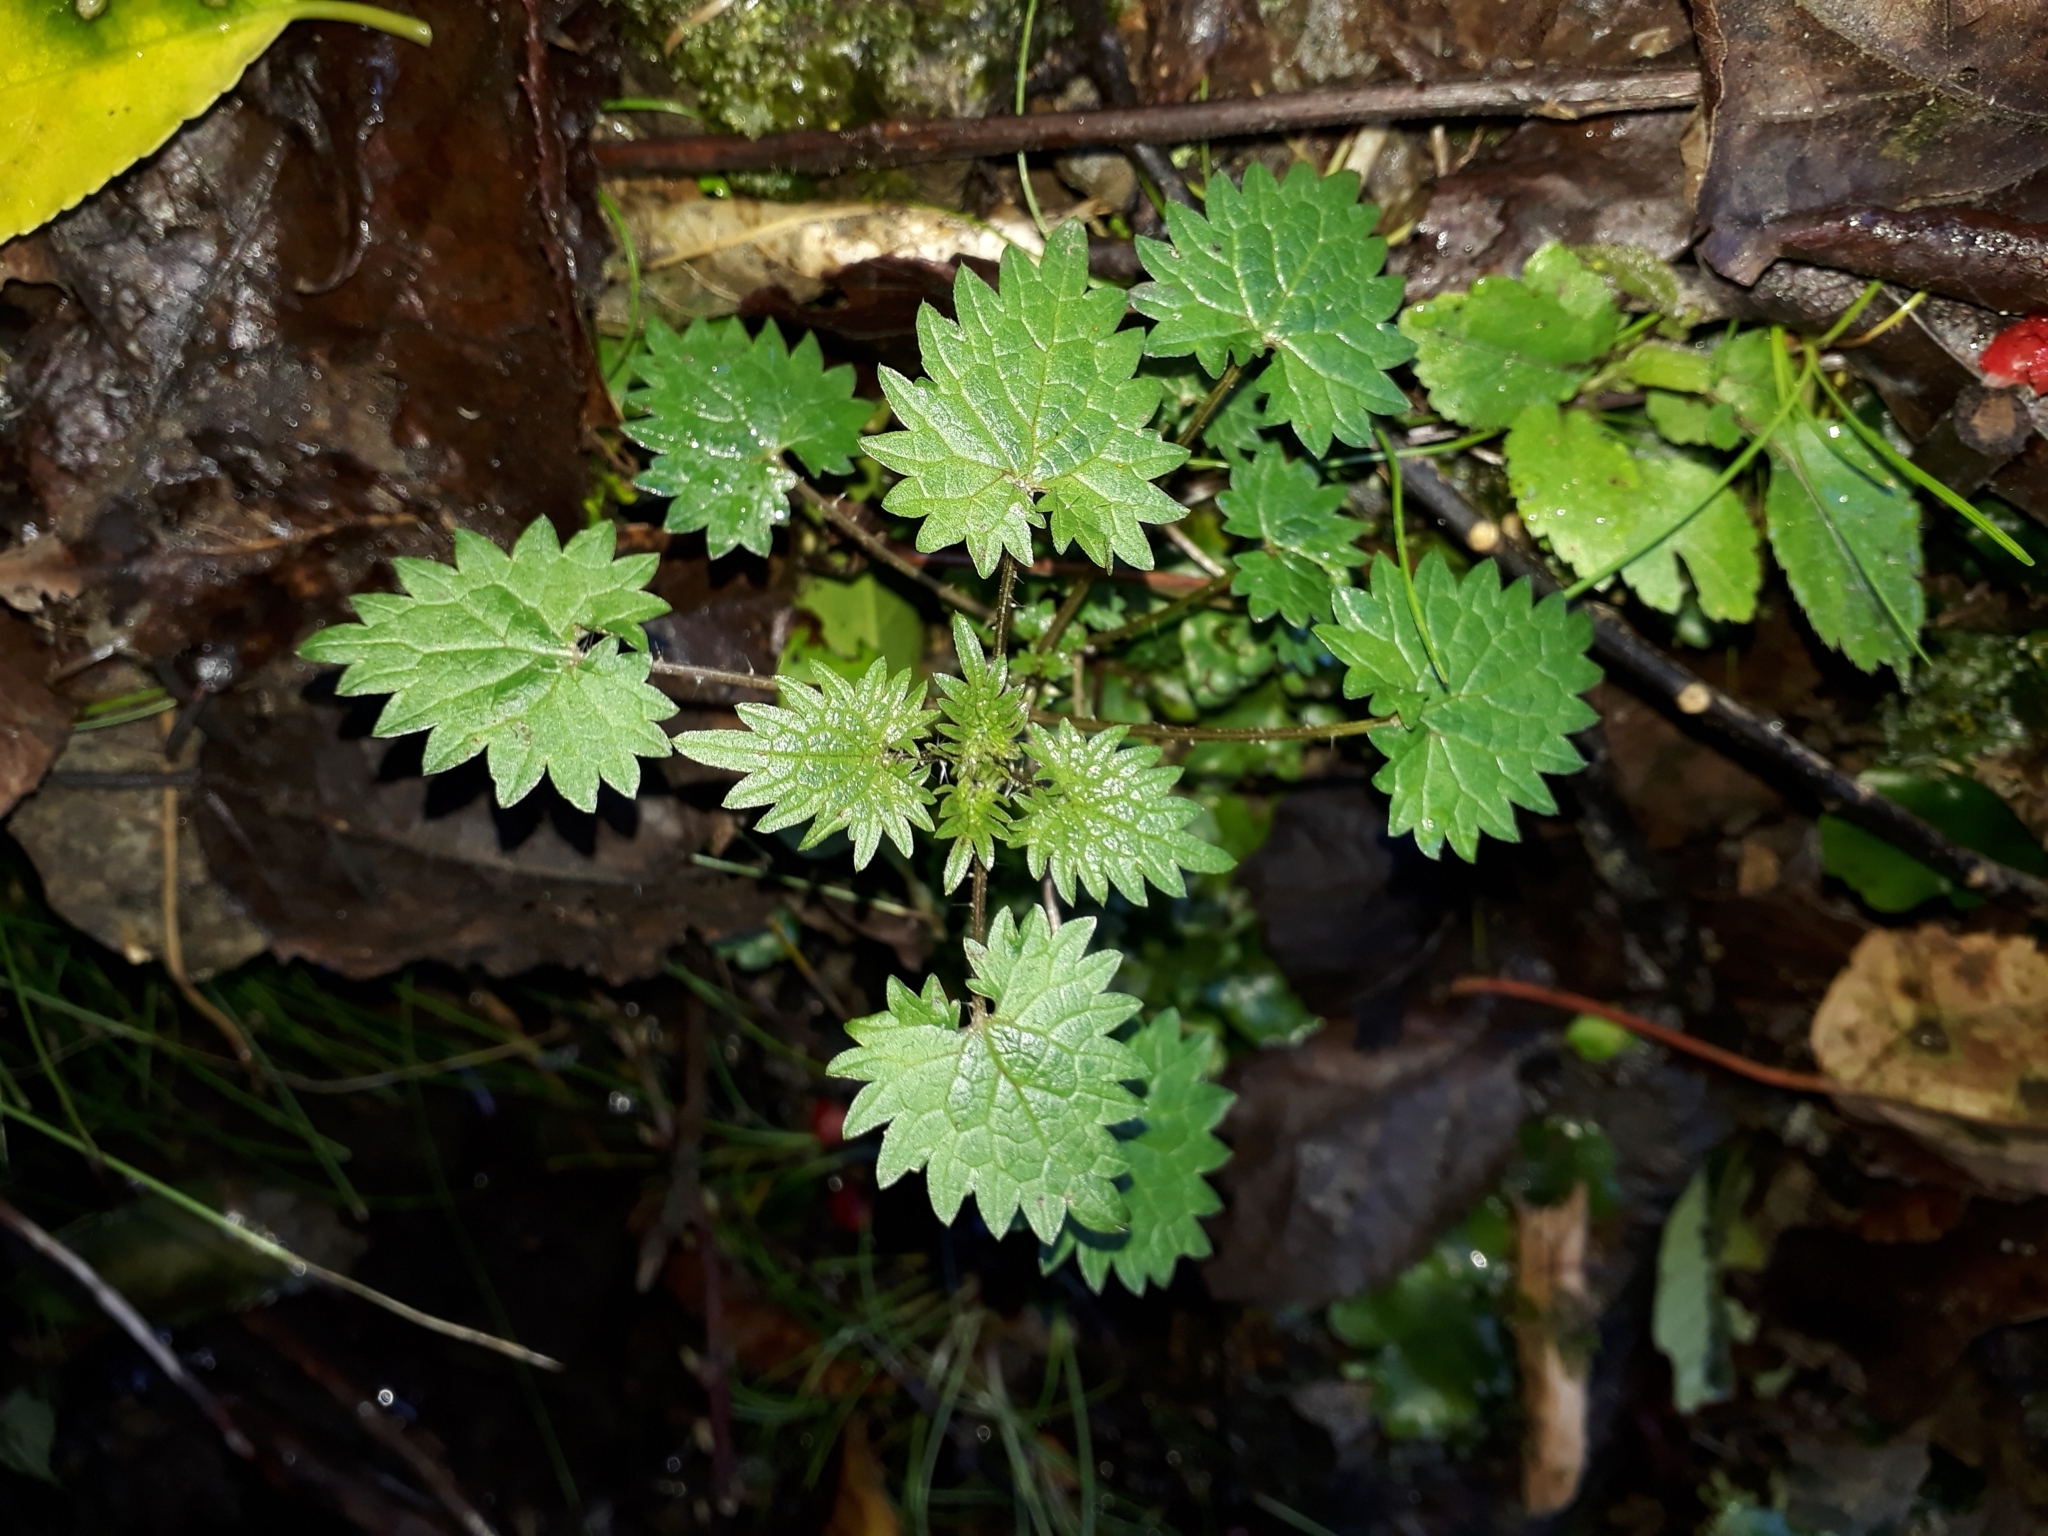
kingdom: Plantae
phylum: Tracheophyta
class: Magnoliopsida
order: Rosales
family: Urticaceae
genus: Urtica
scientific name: Urtica sykesii
